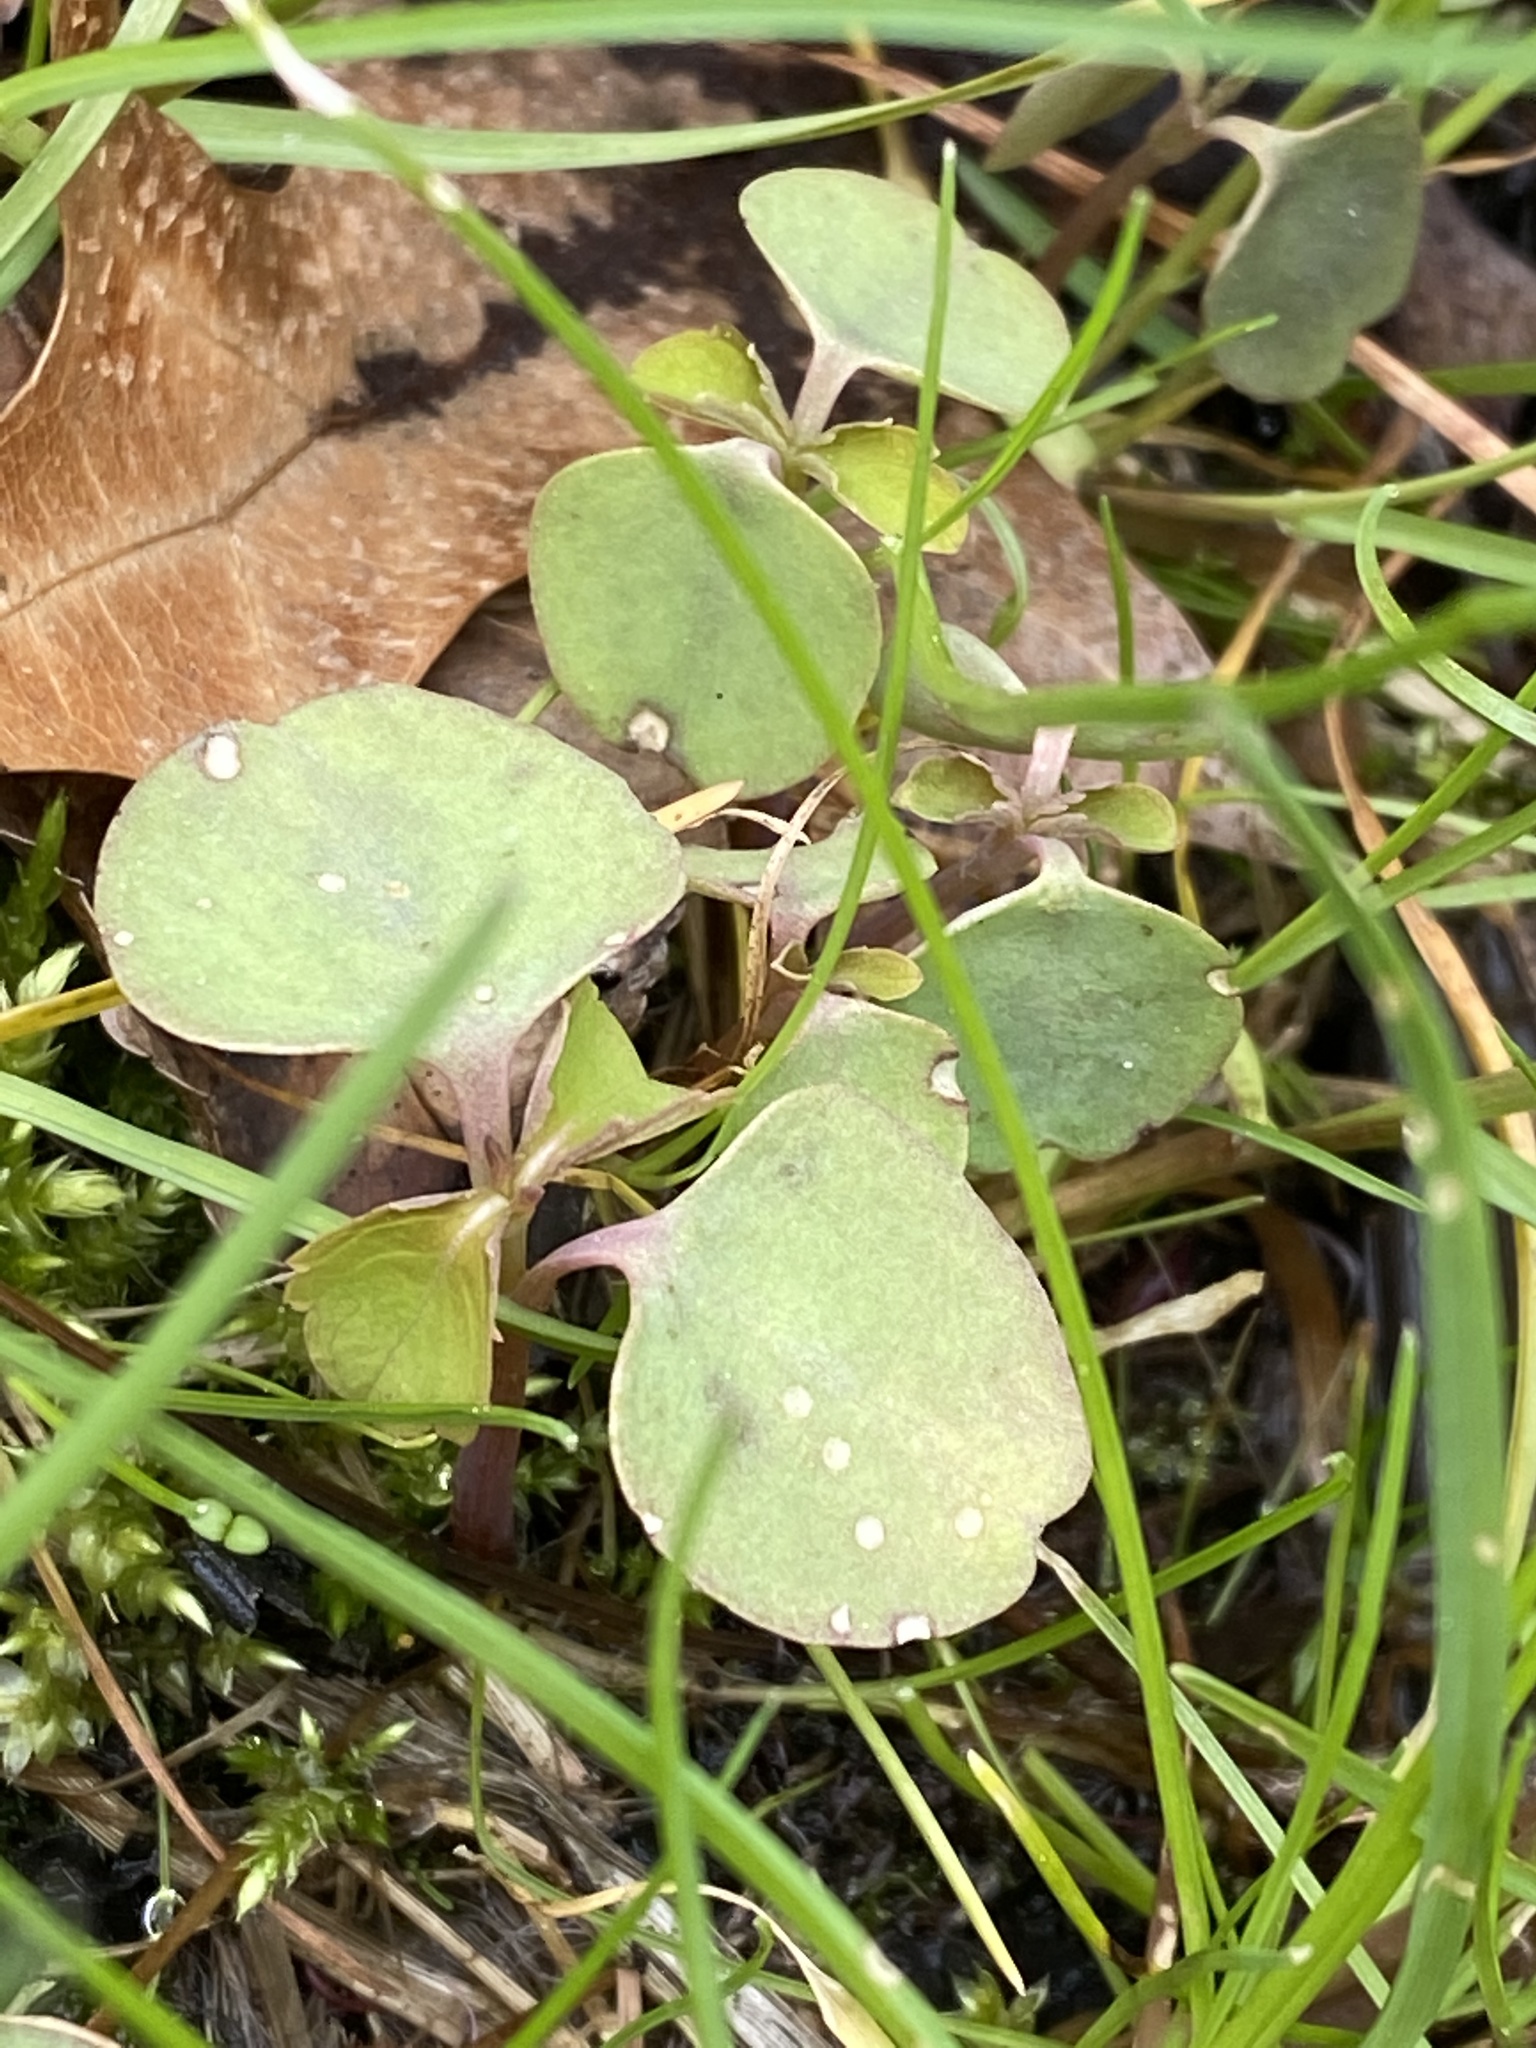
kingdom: Plantae
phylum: Tracheophyta
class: Magnoliopsida
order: Ericales
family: Balsaminaceae
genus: Impatiens
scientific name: Impatiens capensis
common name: Orange balsam
